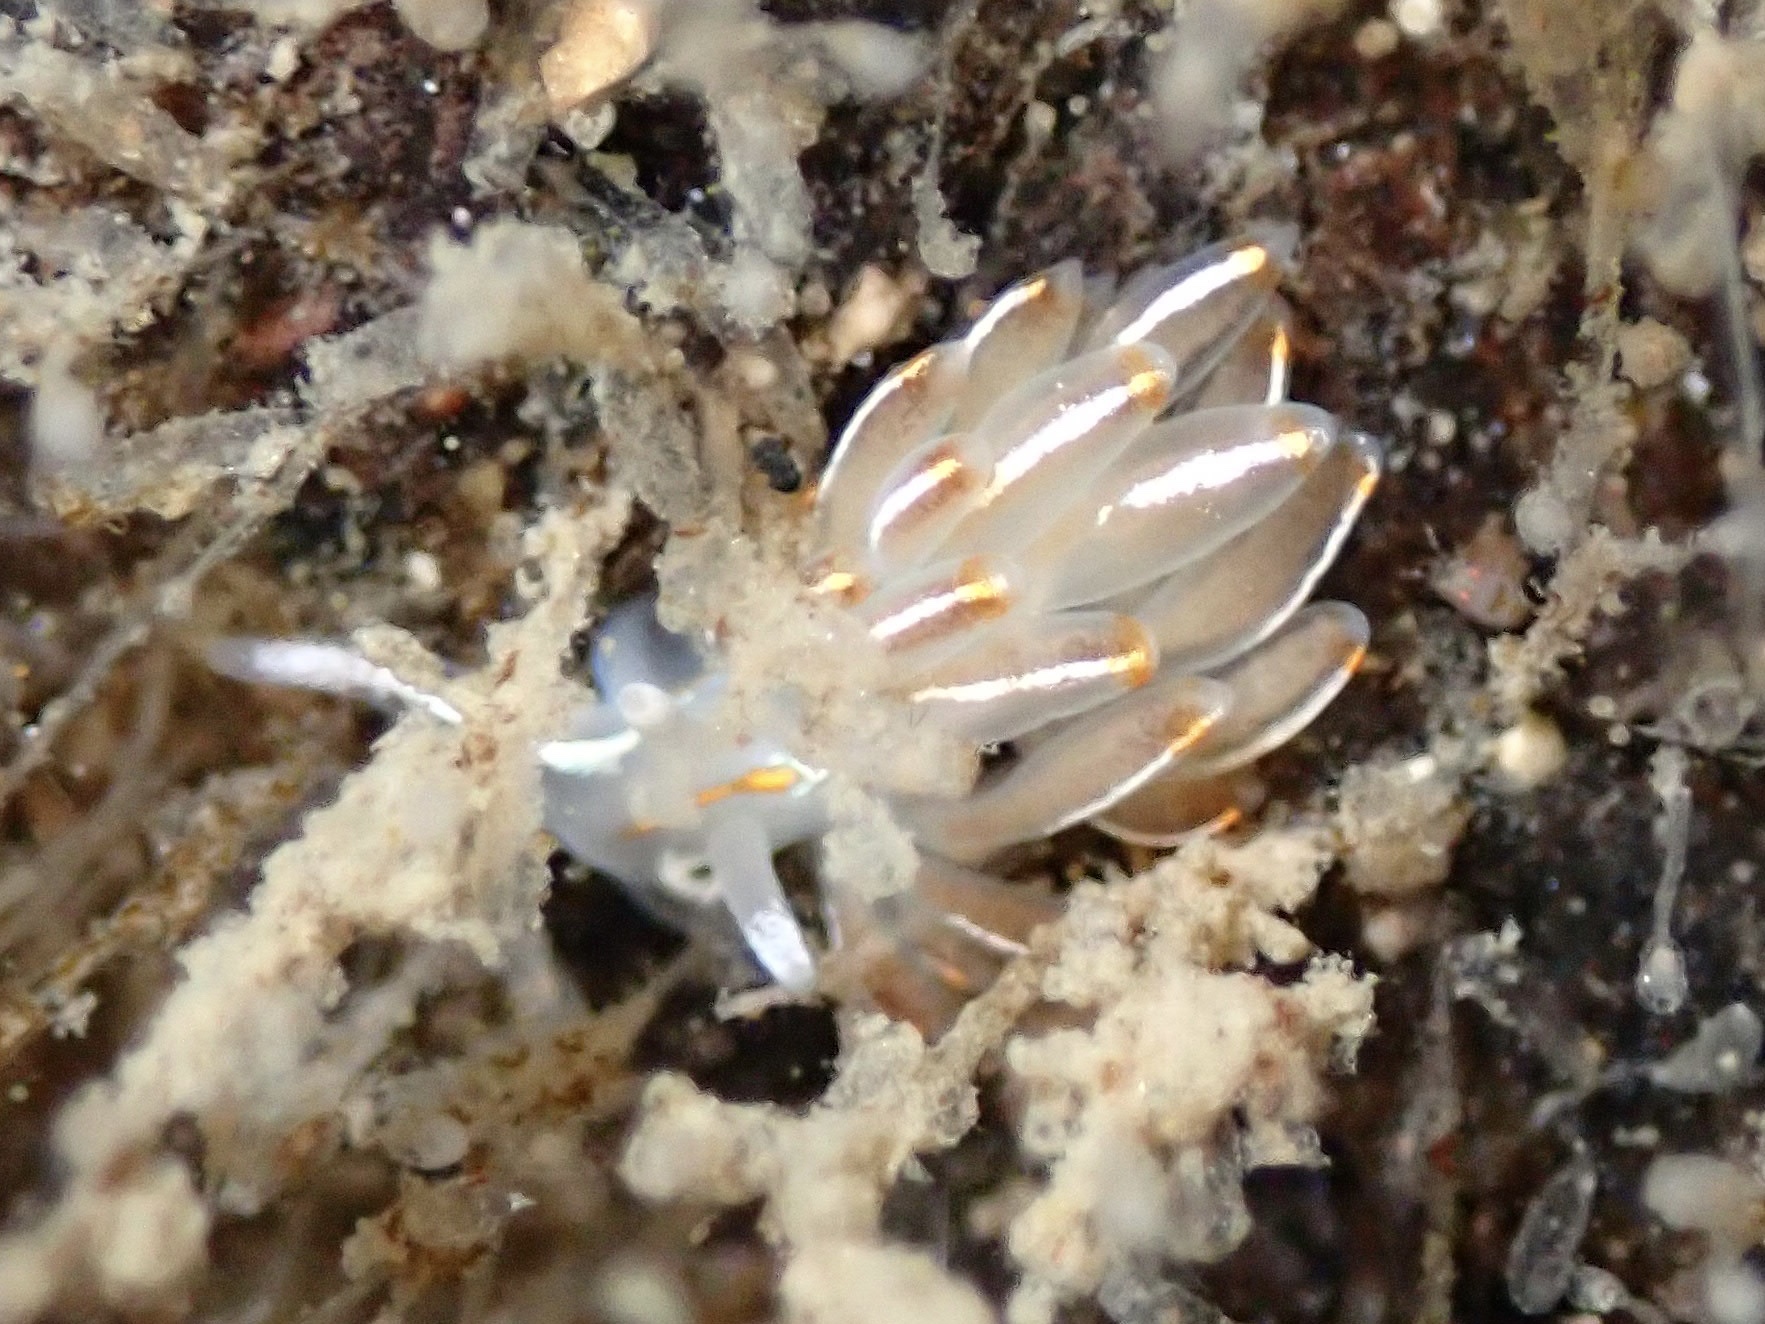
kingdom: Animalia
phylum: Mollusca
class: Gastropoda
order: Nudibranchia
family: Myrrhinidae
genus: Hermissenda
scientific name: Hermissenda crassicornis
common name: Hermissenda
